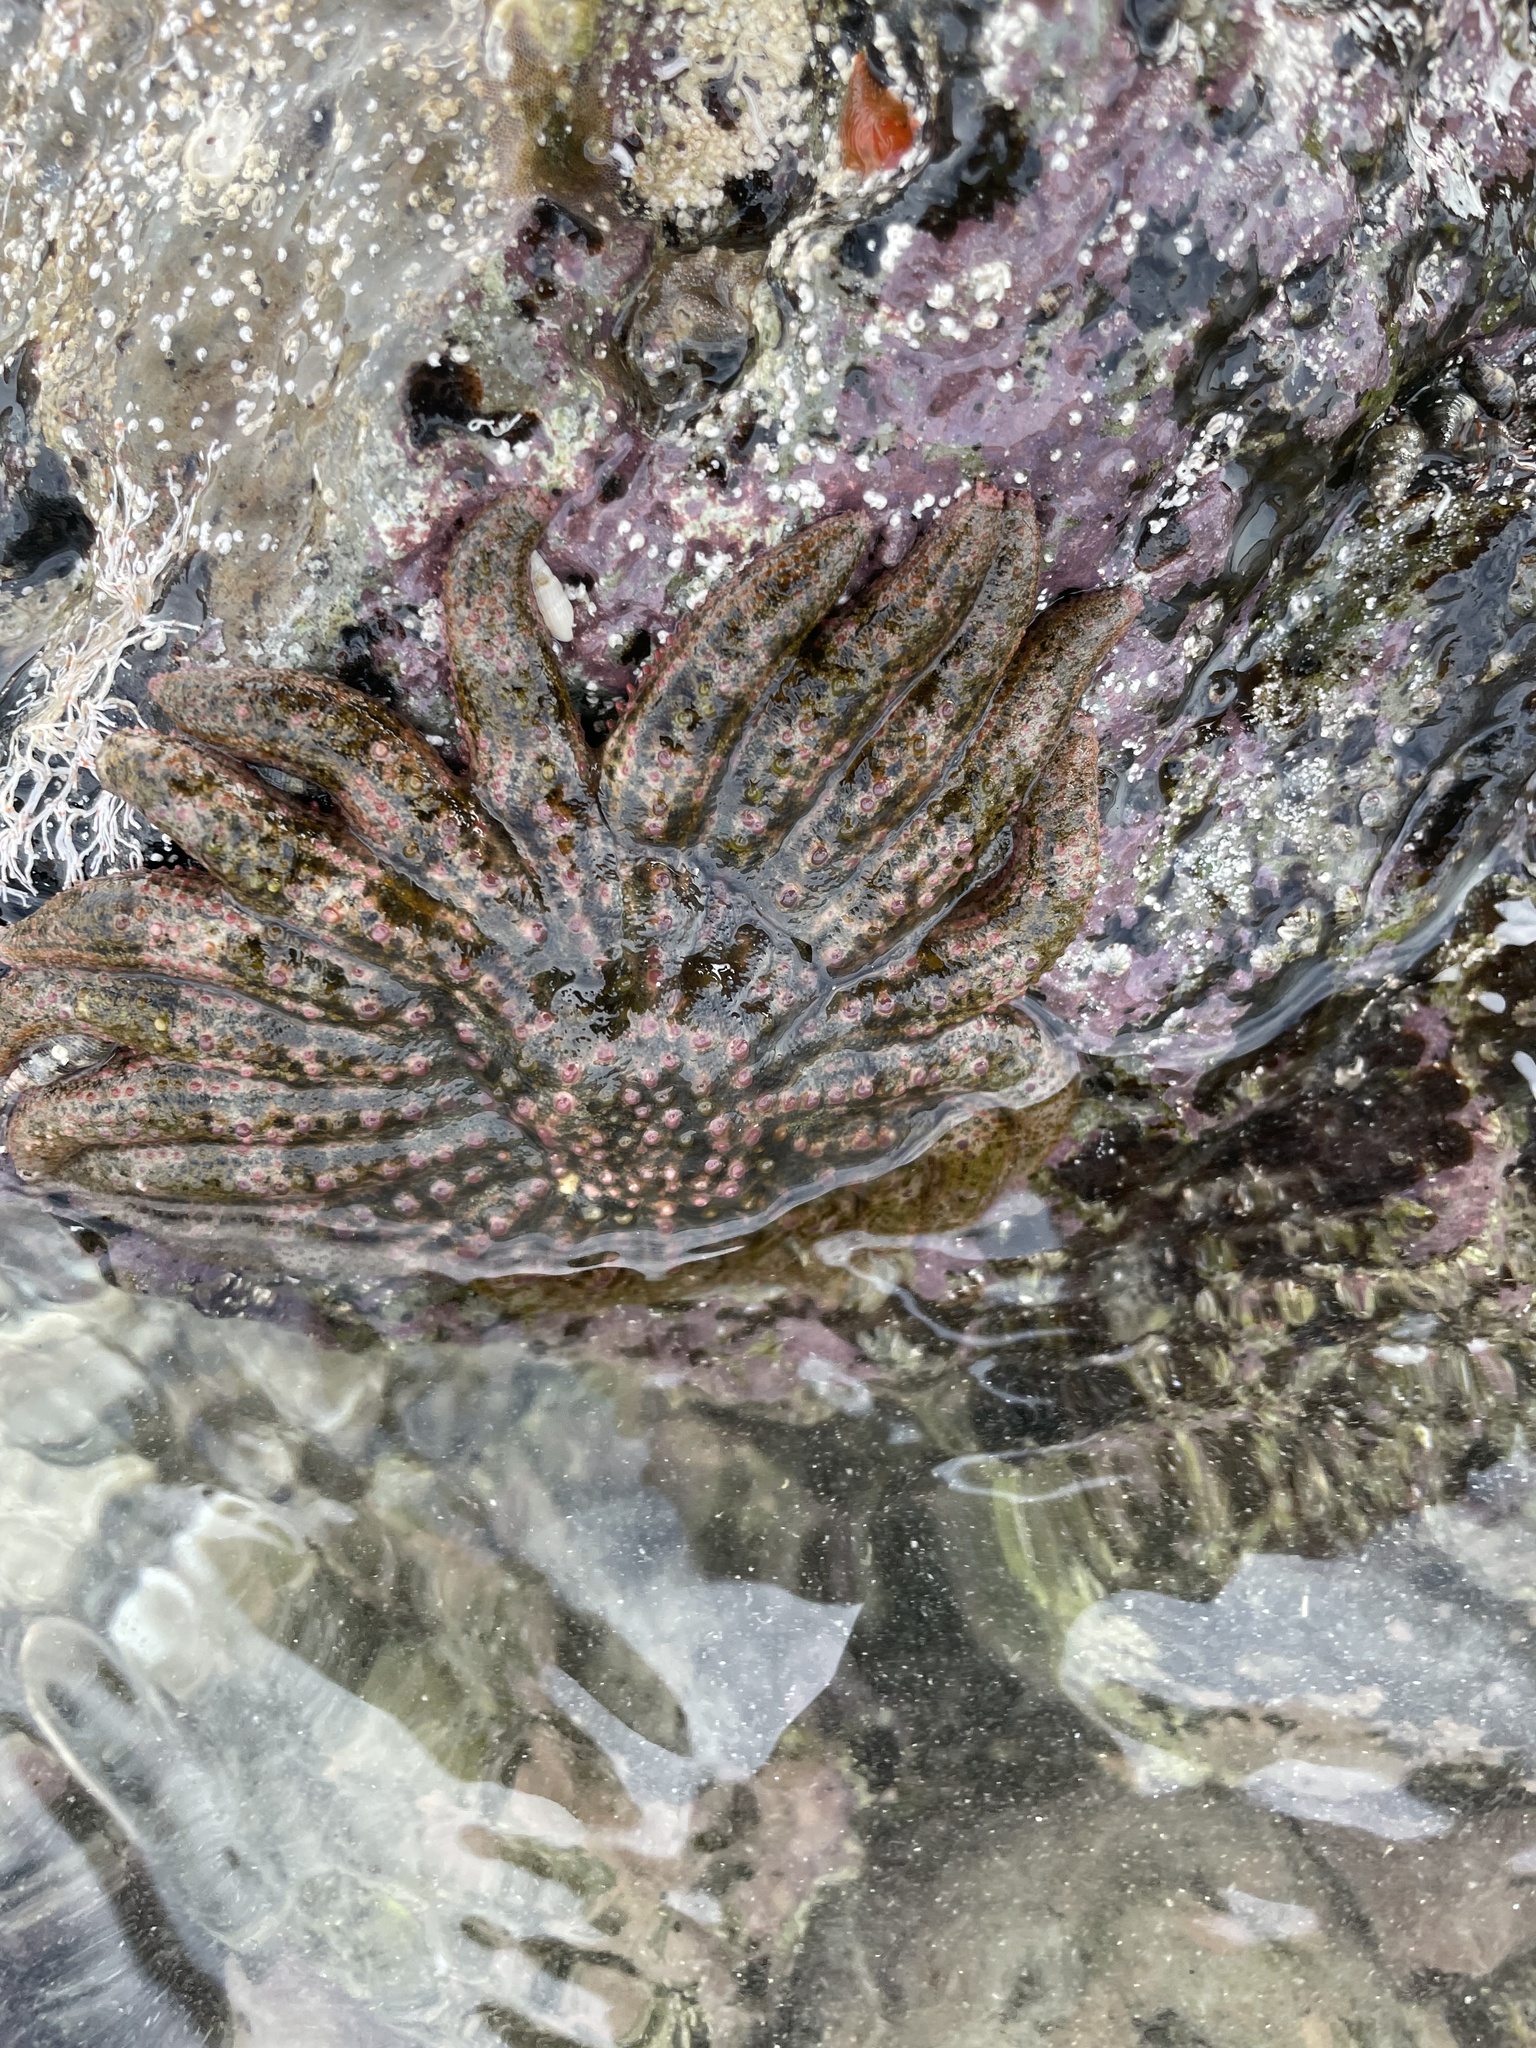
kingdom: Animalia
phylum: Echinodermata
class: Asteroidea
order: Forcipulatida
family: Heliasteridae
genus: Heliaster
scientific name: Heliaster kubiniji
